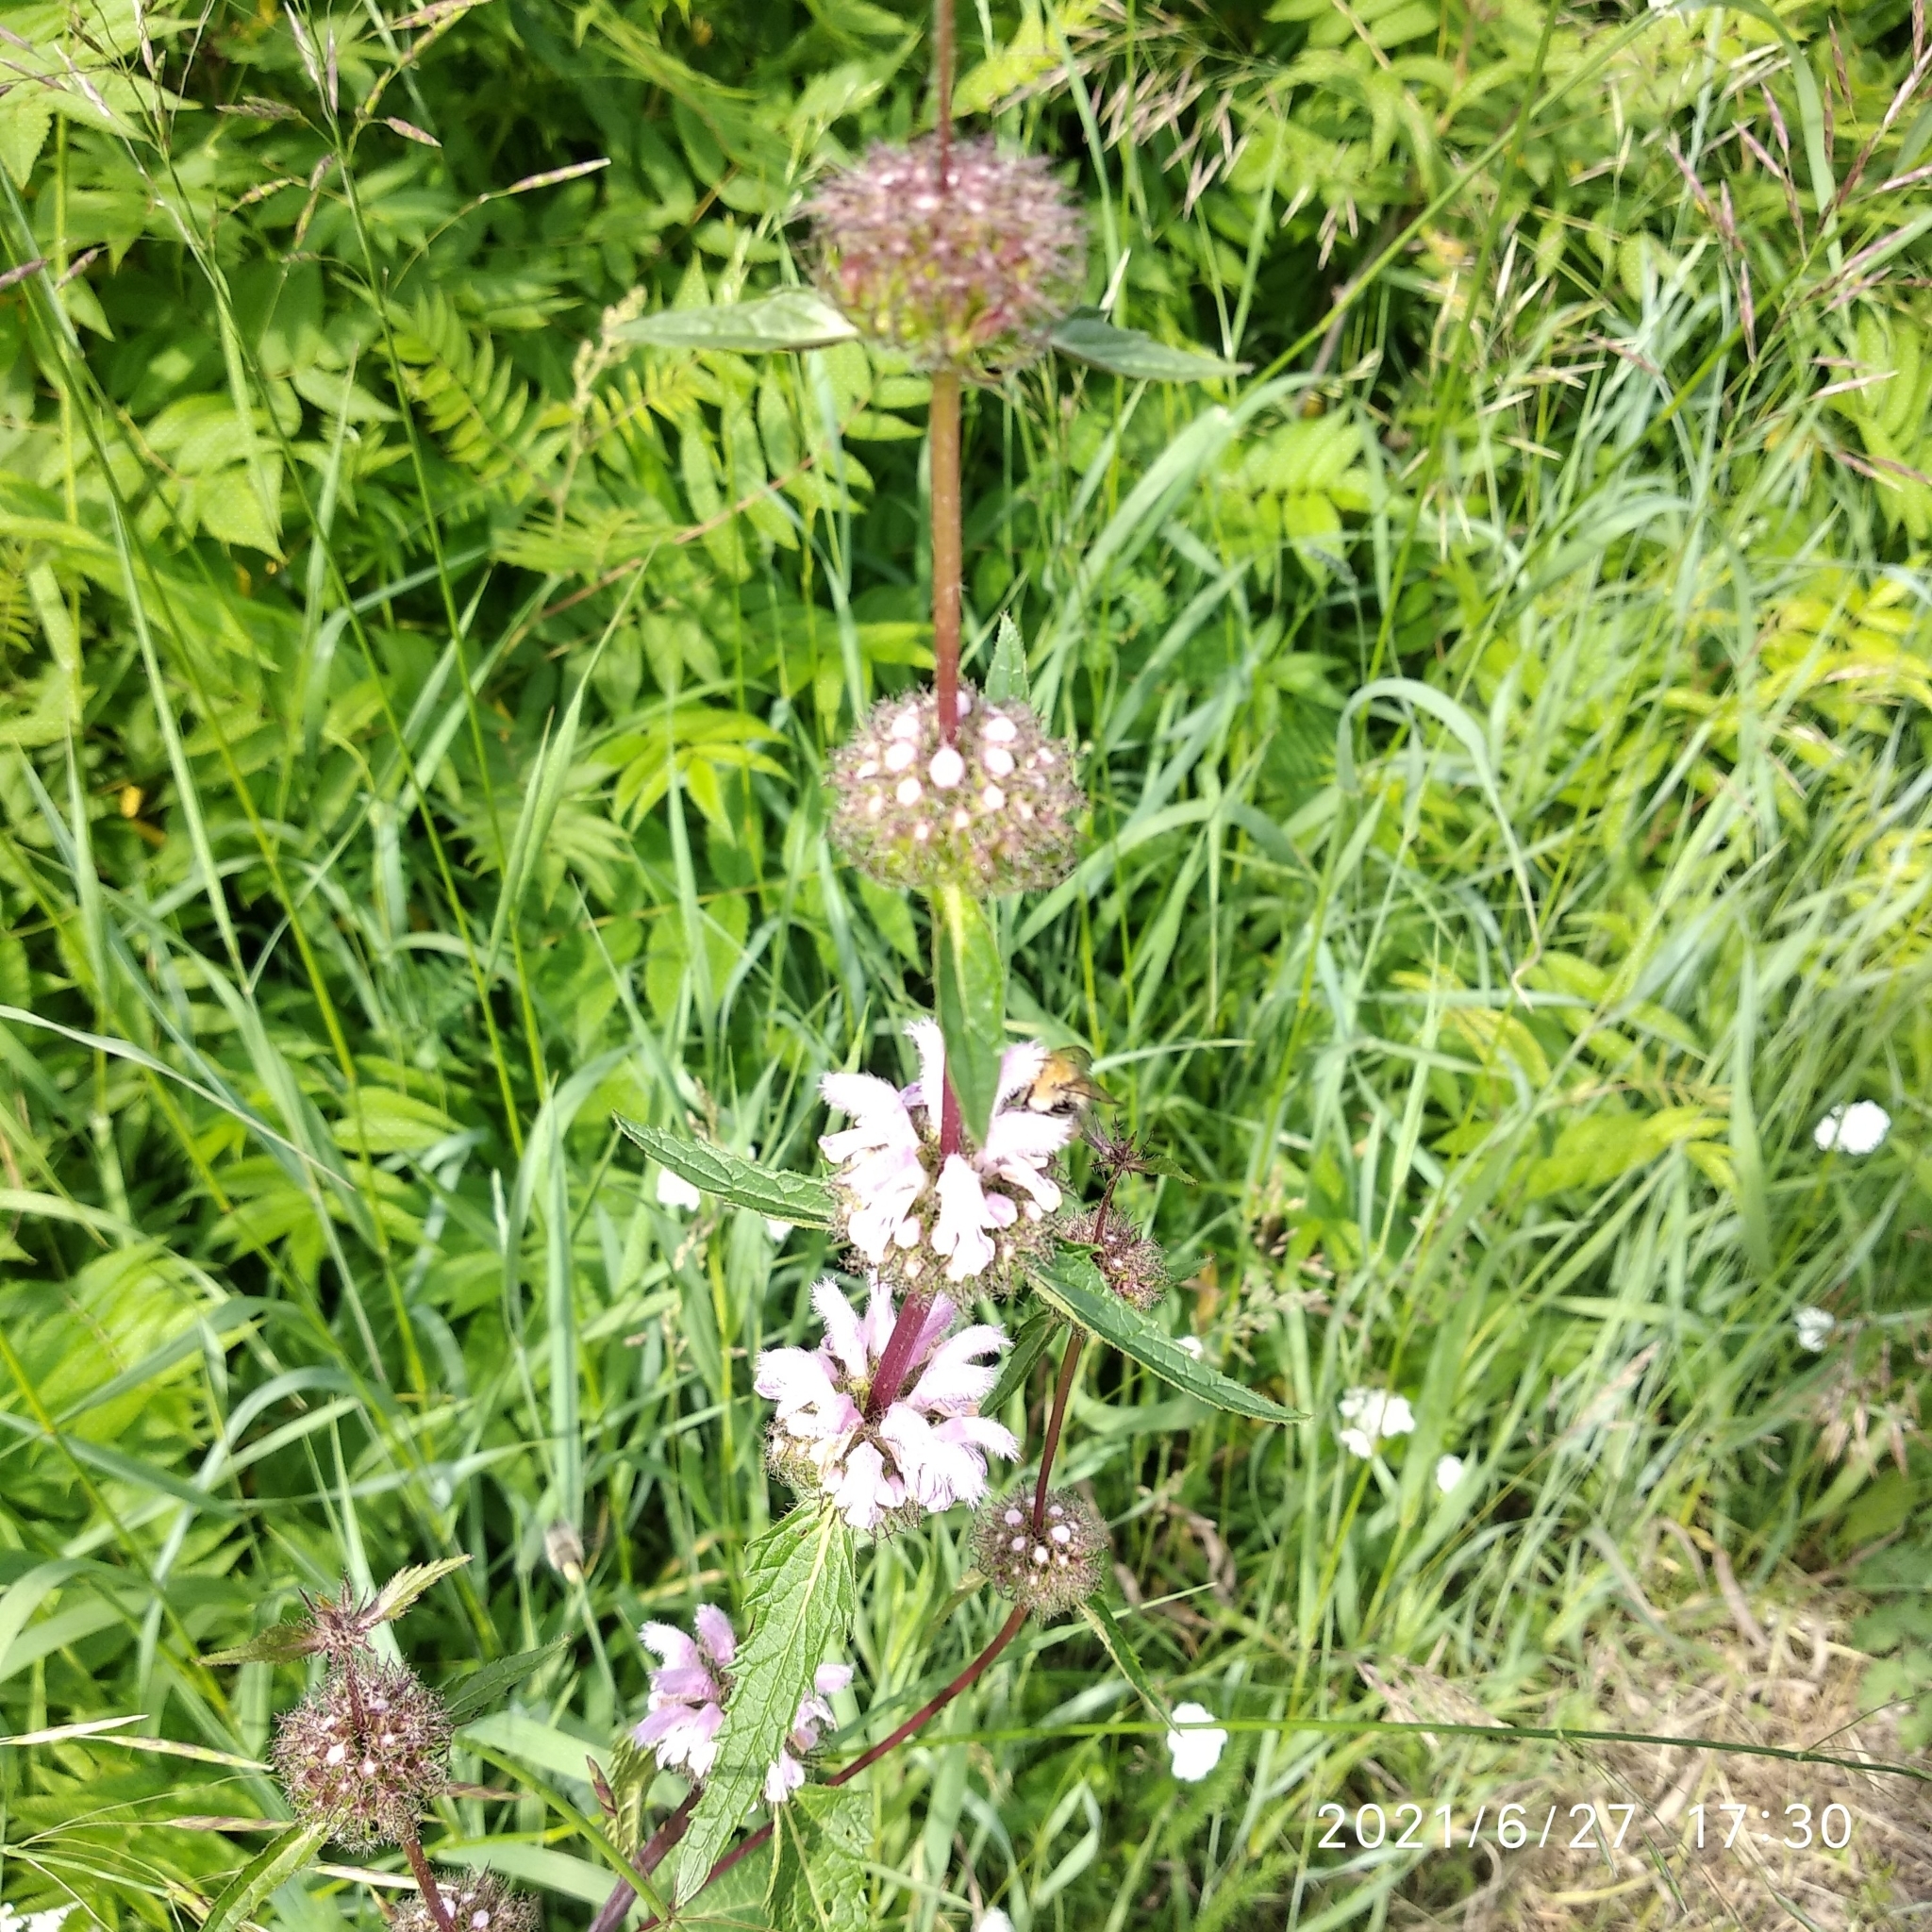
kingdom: Plantae
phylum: Tracheophyta
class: Magnoliopsida
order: Lamiales
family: Lamiaceae
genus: Phlomoides
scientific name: Phlomoides tuberosa
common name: Tuberous jerusalem sage
